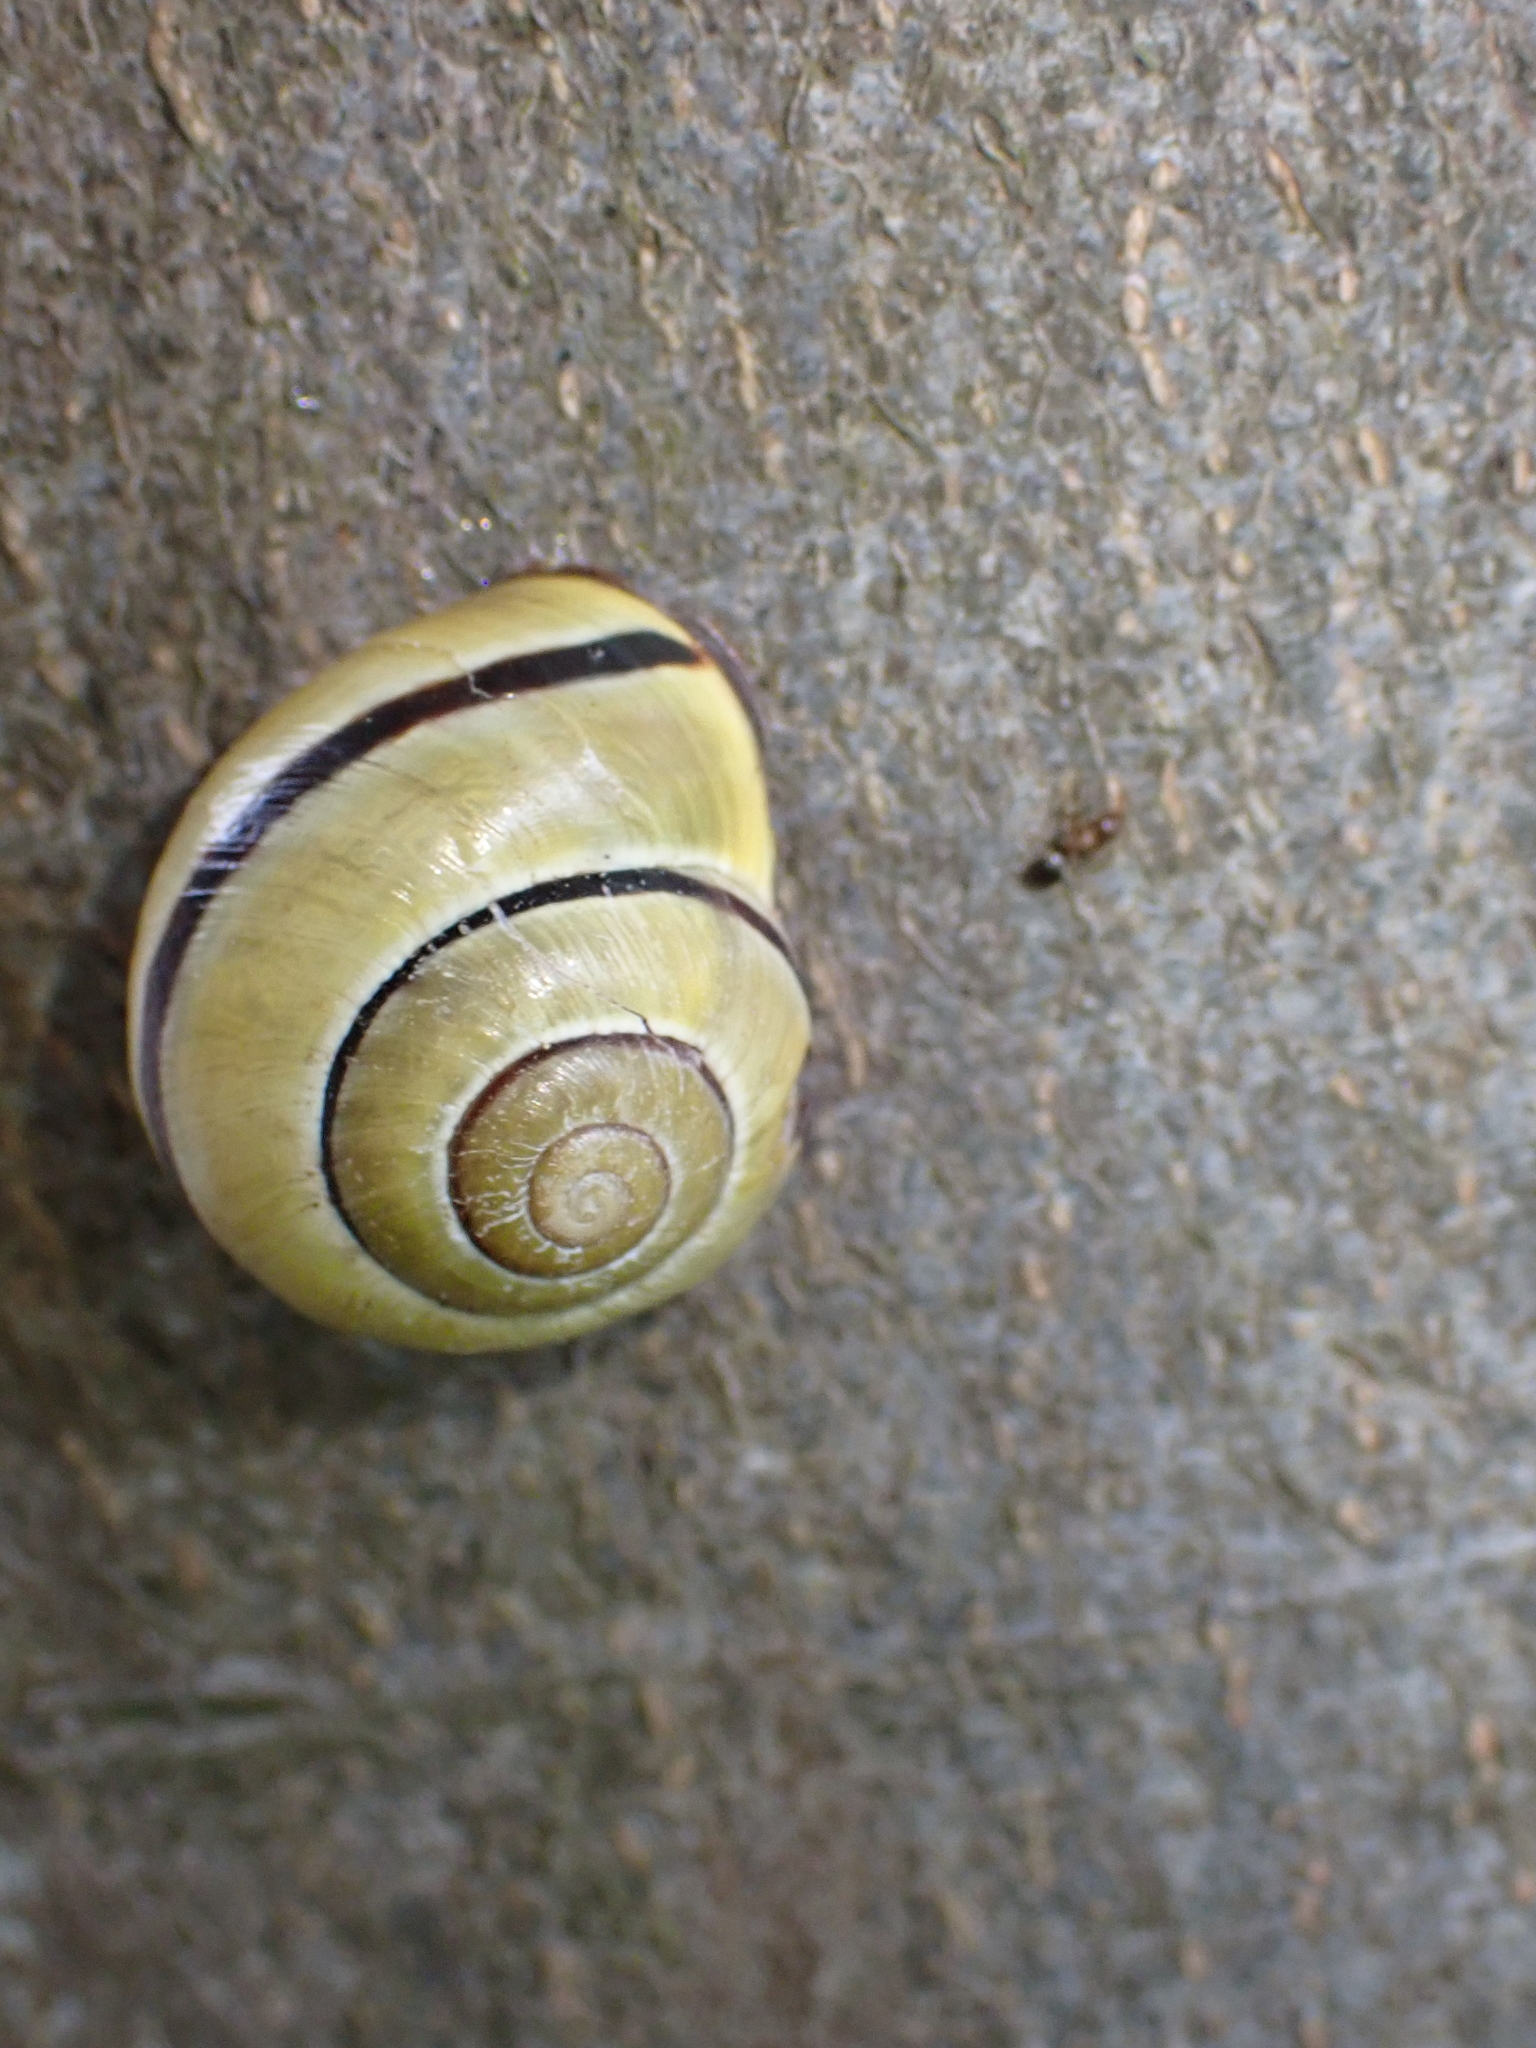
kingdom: Animalia
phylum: Mollusca
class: Gastropoda
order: Stylommatophora
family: Helicidae
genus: Cepaea
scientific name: Cepaea nemoralis
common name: Grovesnail
